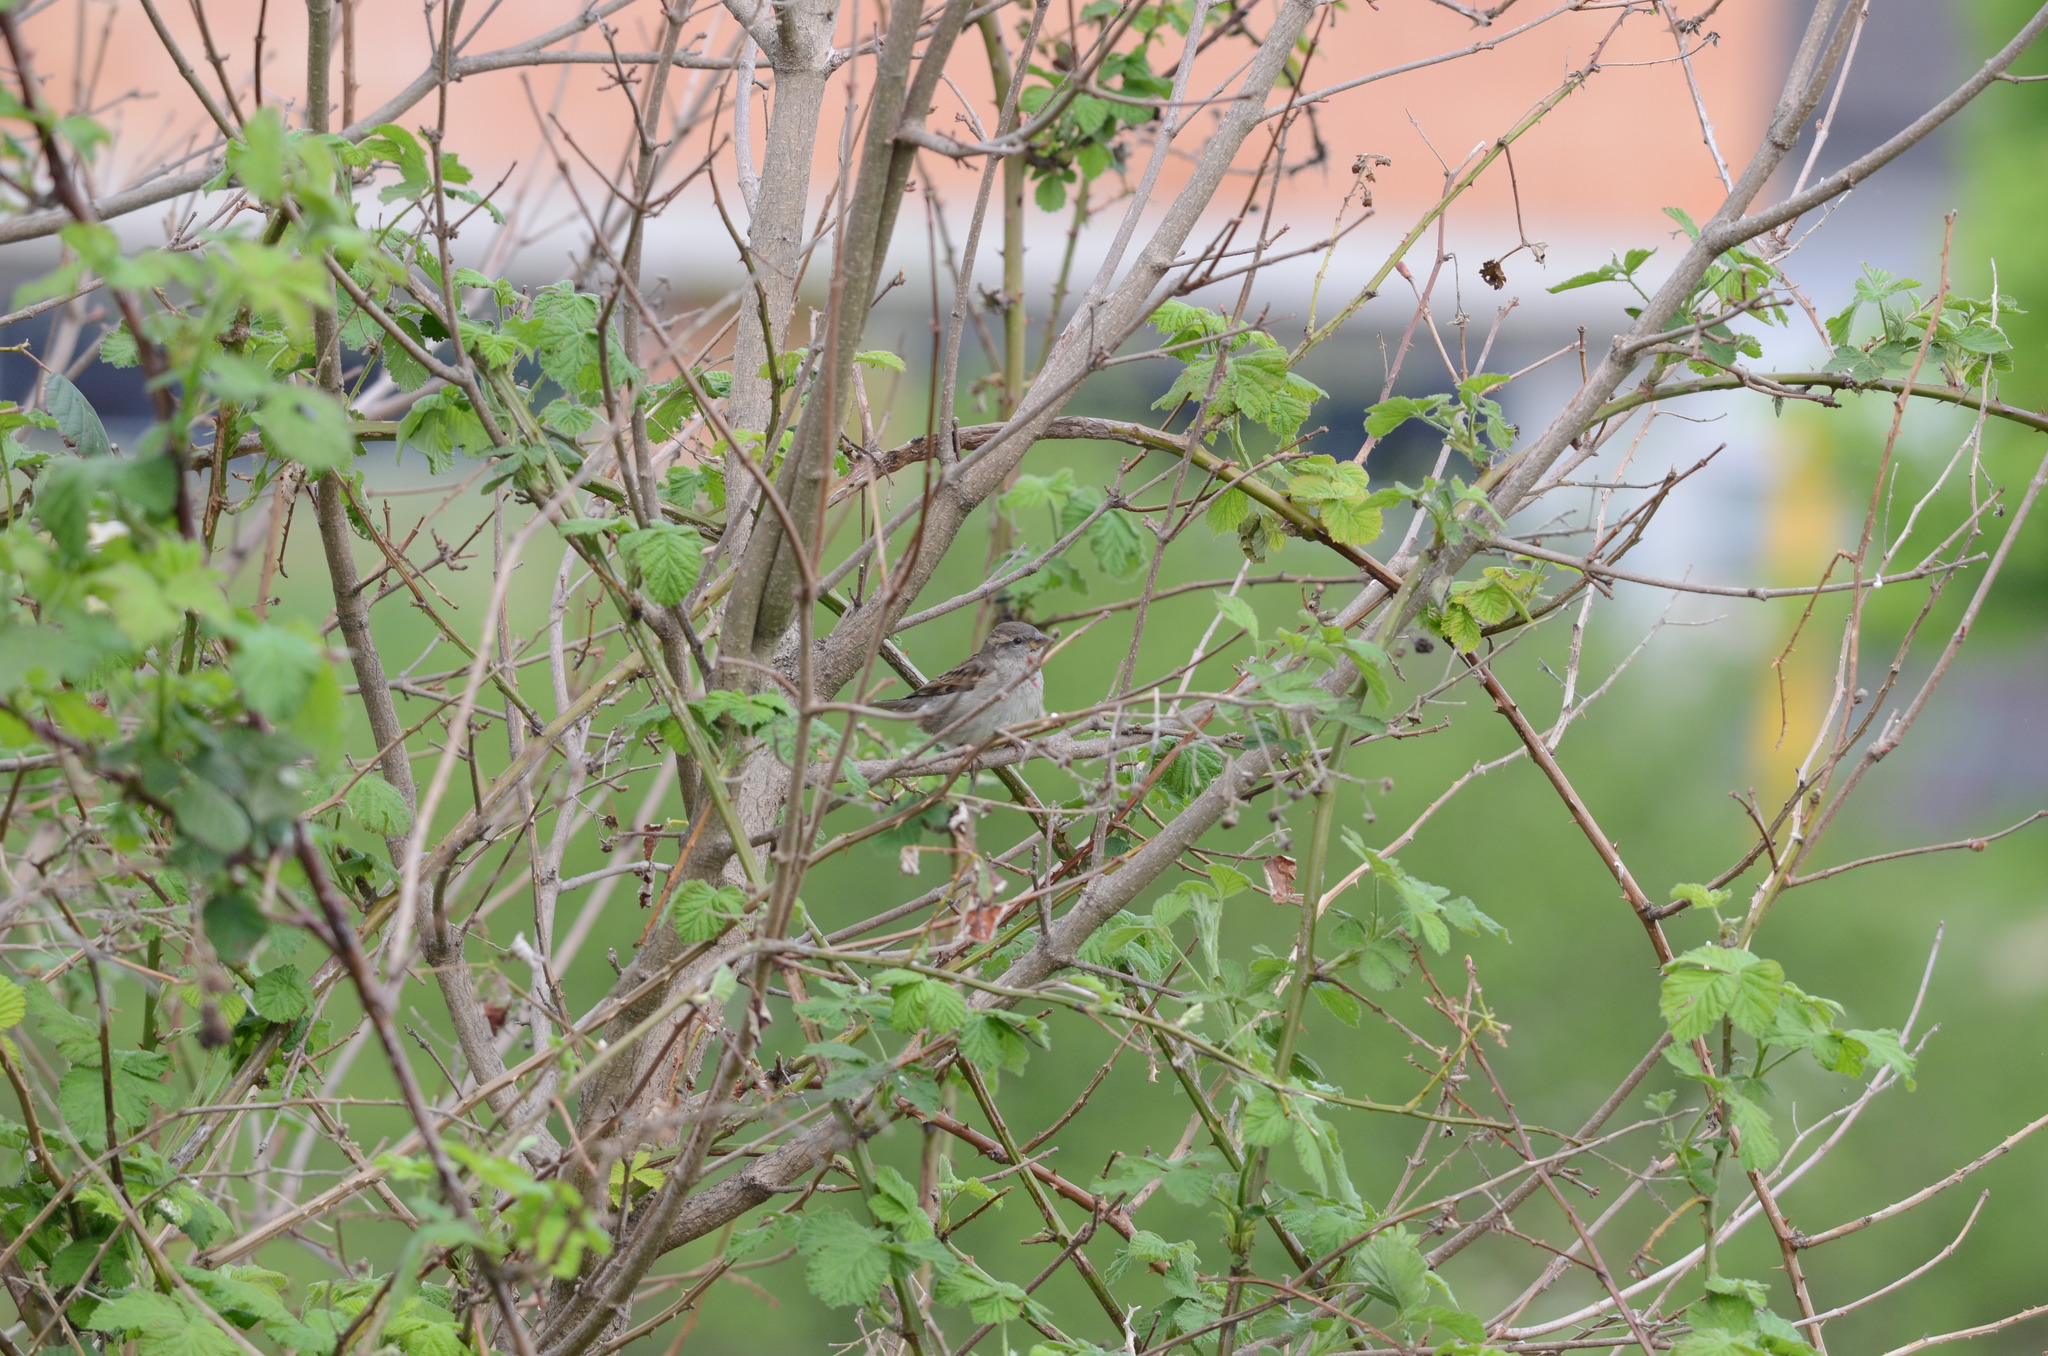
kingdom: Animalia
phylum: Chordata
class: Aves
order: Passeriformes
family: Passeridae
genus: Passer
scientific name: Passer domesticus
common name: House sparrow
